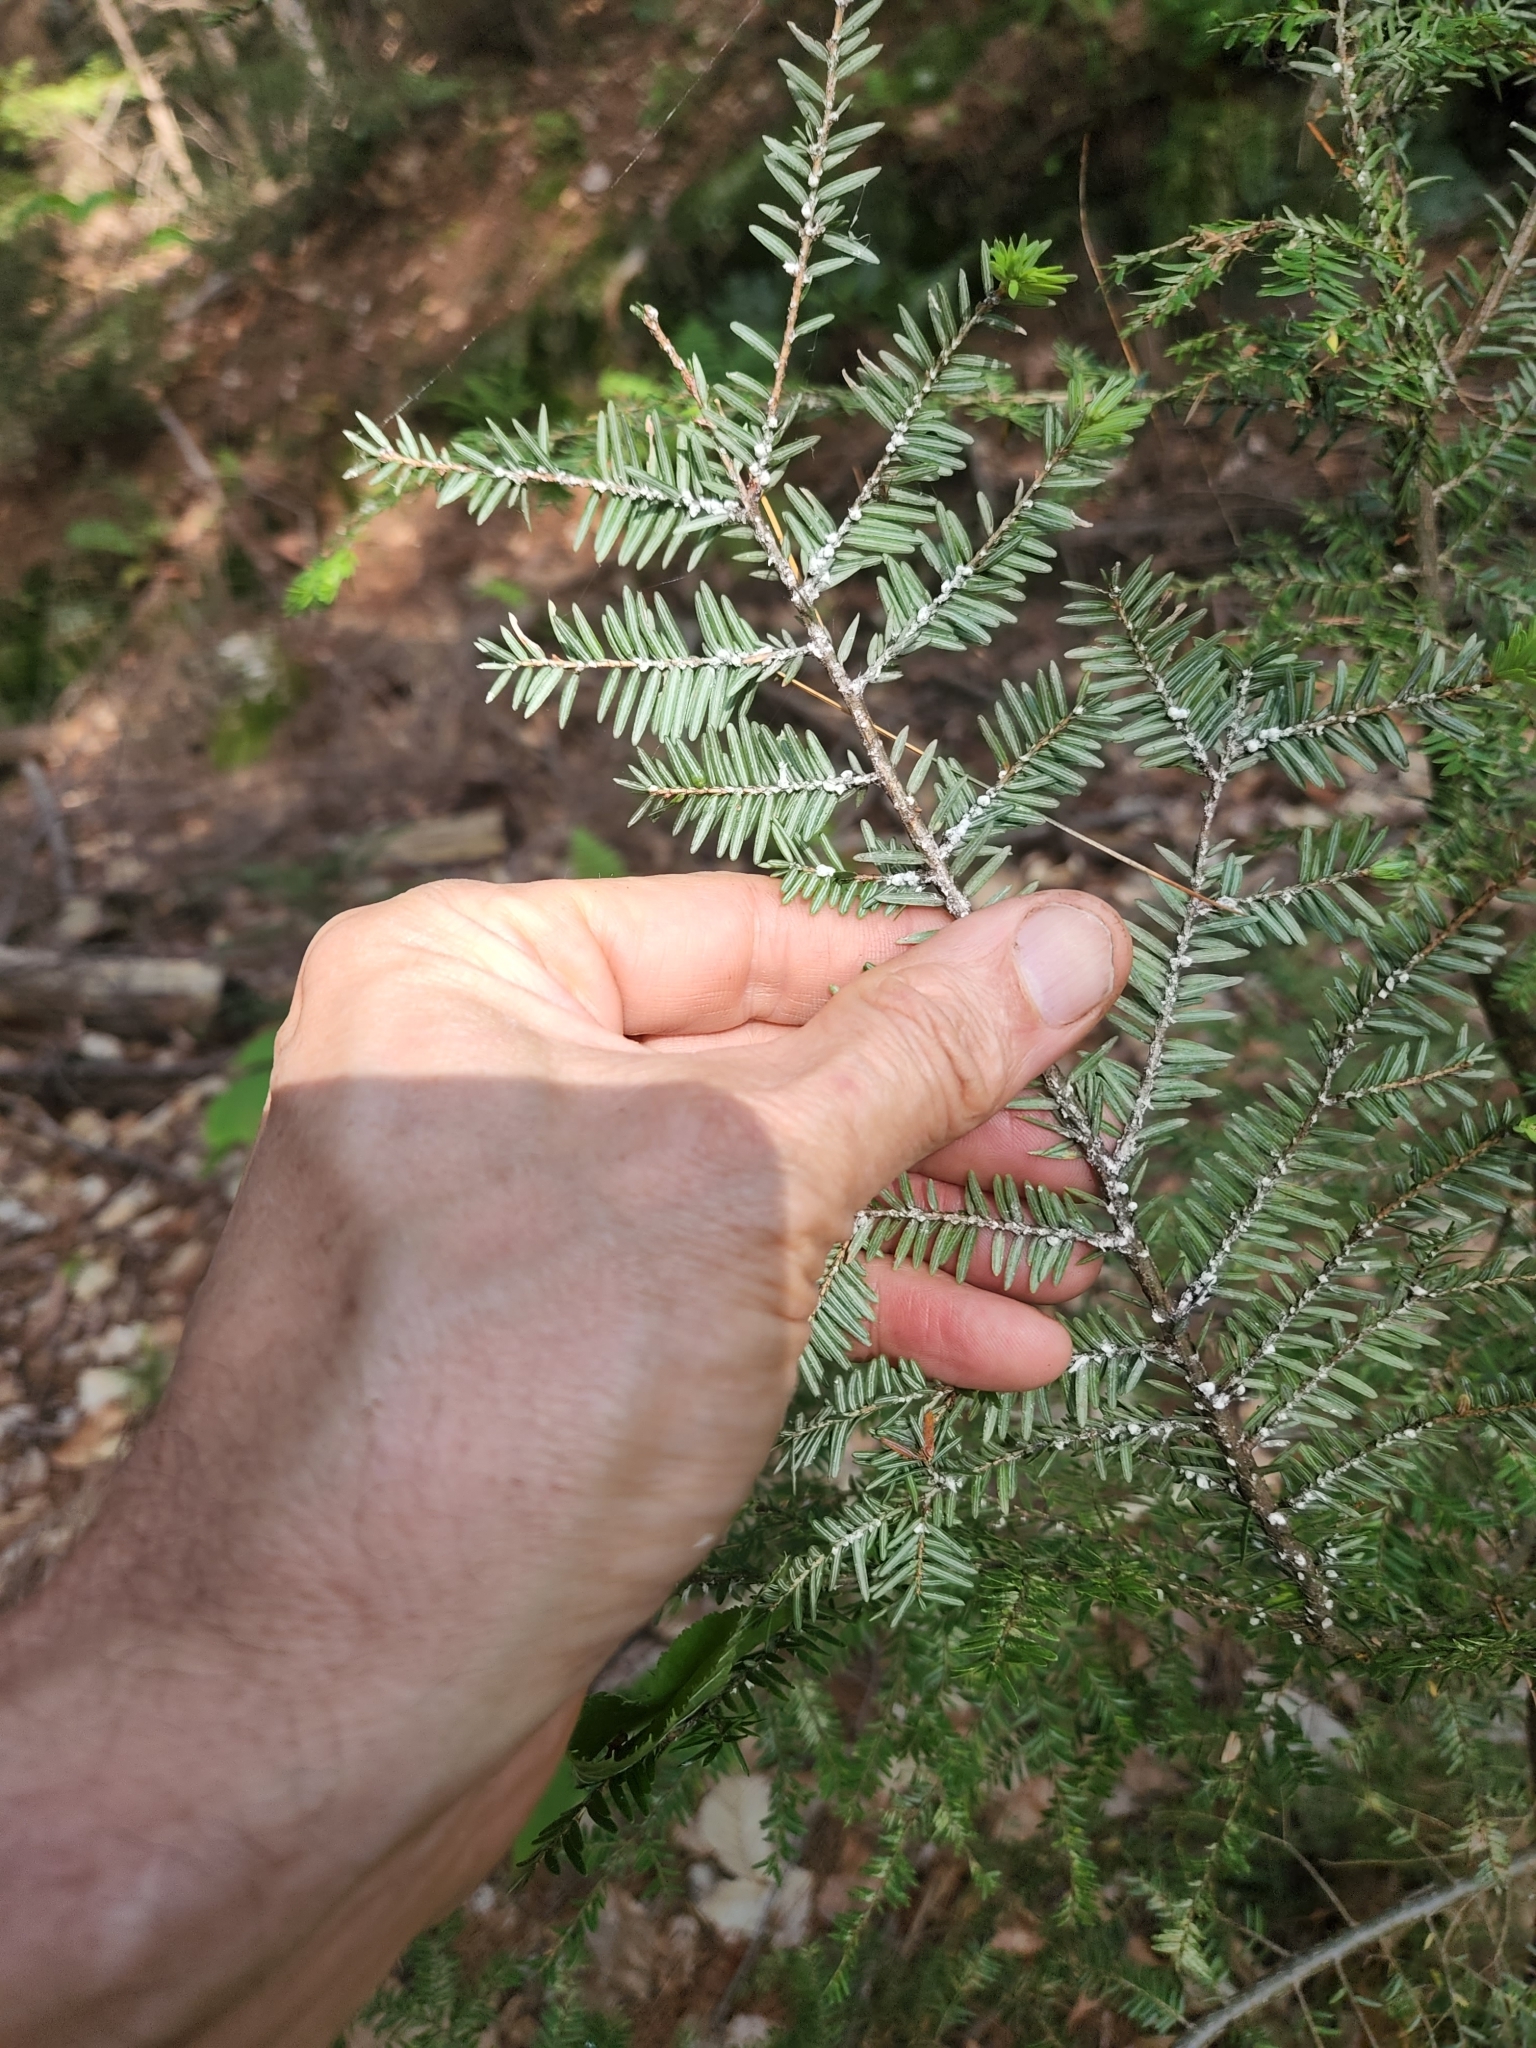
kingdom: Animalia
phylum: Arthropoda
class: Insecta
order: Hemiptera
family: Adelgidae
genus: Adelges
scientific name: Adelges tsugae
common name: Hemlock woolly adelgid
